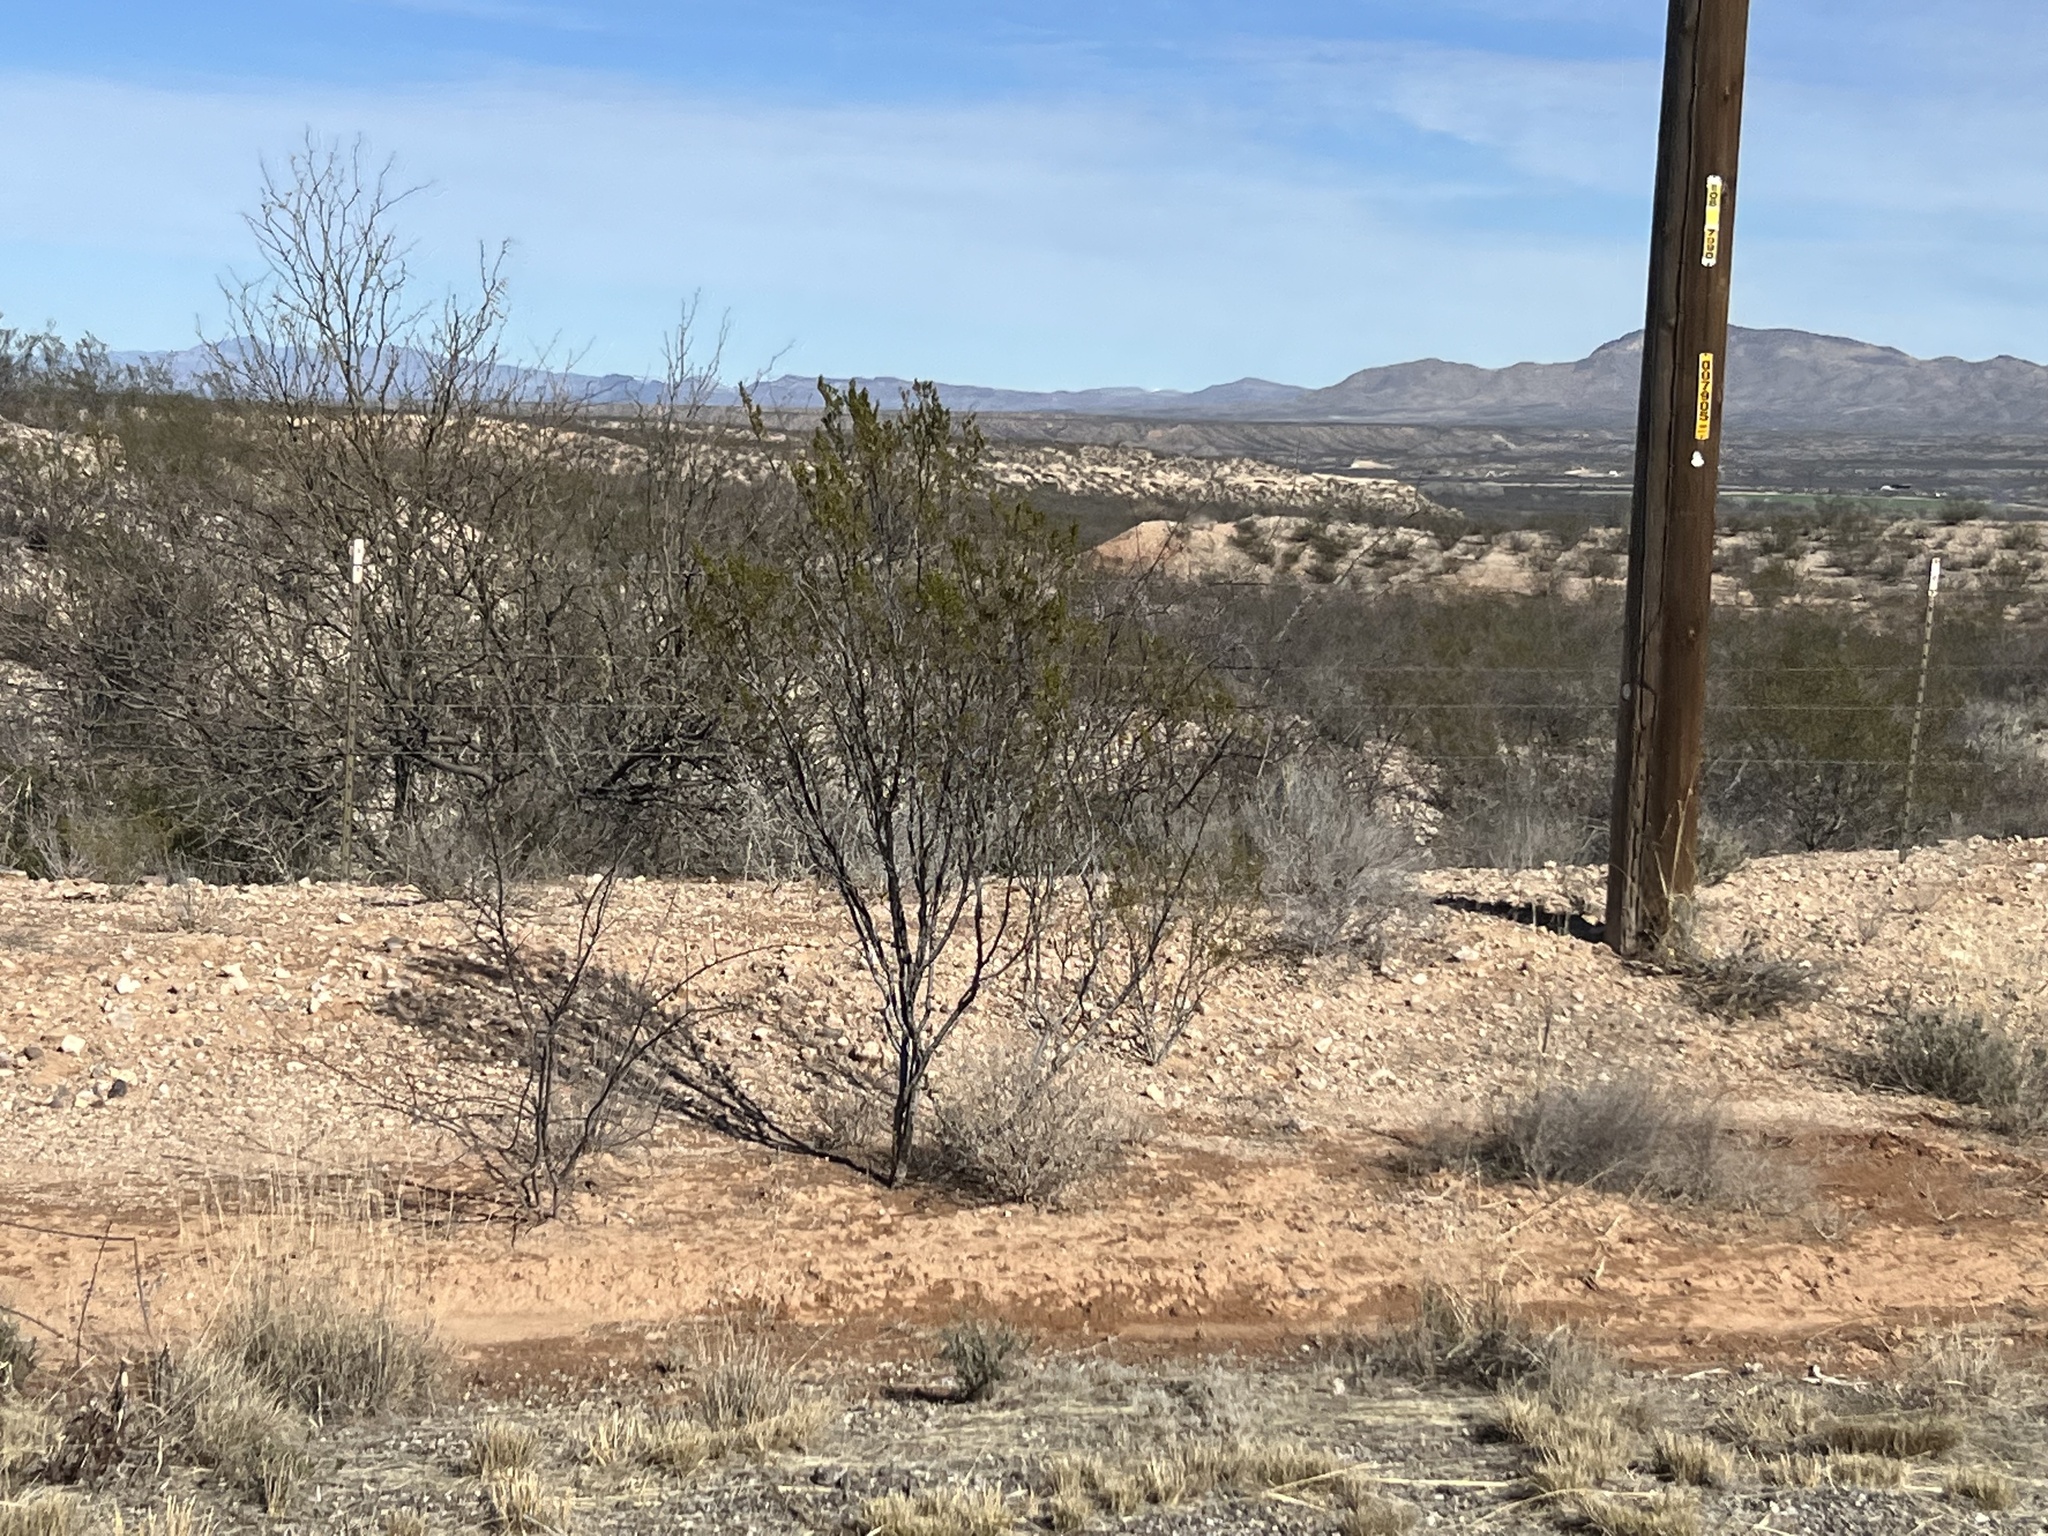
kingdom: Plantae
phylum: Tracheophyta
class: Magnoliopsida
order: Zygophyllales
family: Zygophyllaceae
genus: Larrea
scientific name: Larrea tridentata
